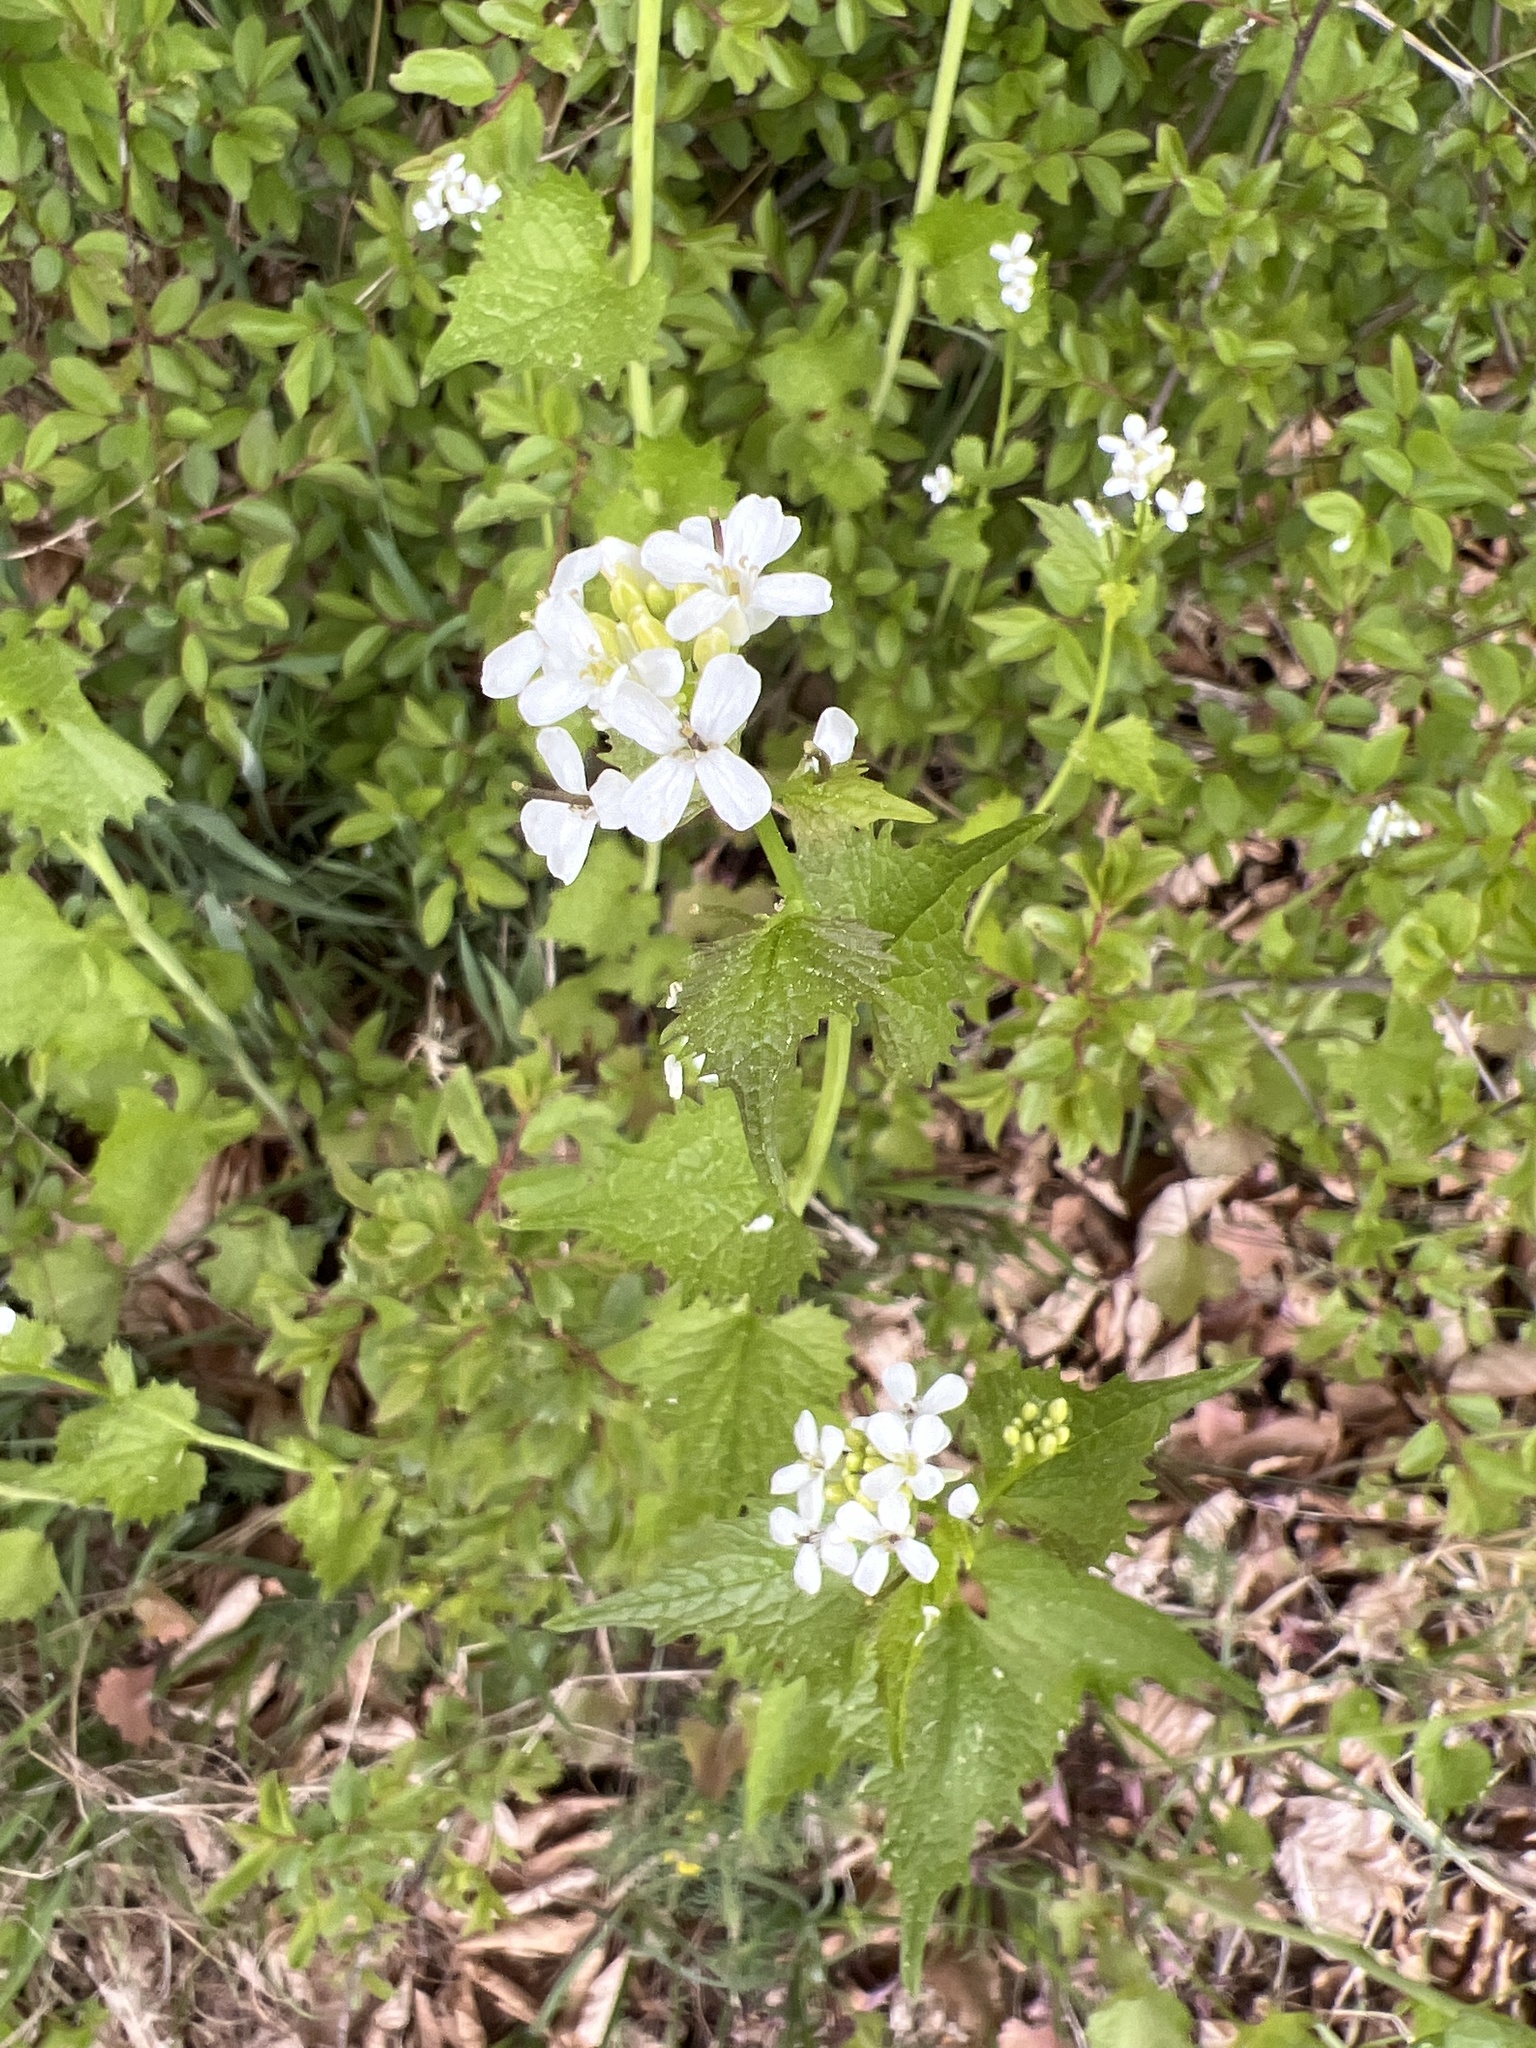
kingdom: Plantae
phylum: Tracheophyta
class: Magnoliopsida
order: Brassicales
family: Brassicaceae
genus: Alliaria
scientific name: Alliaria petiolata
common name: Garlic mustard
